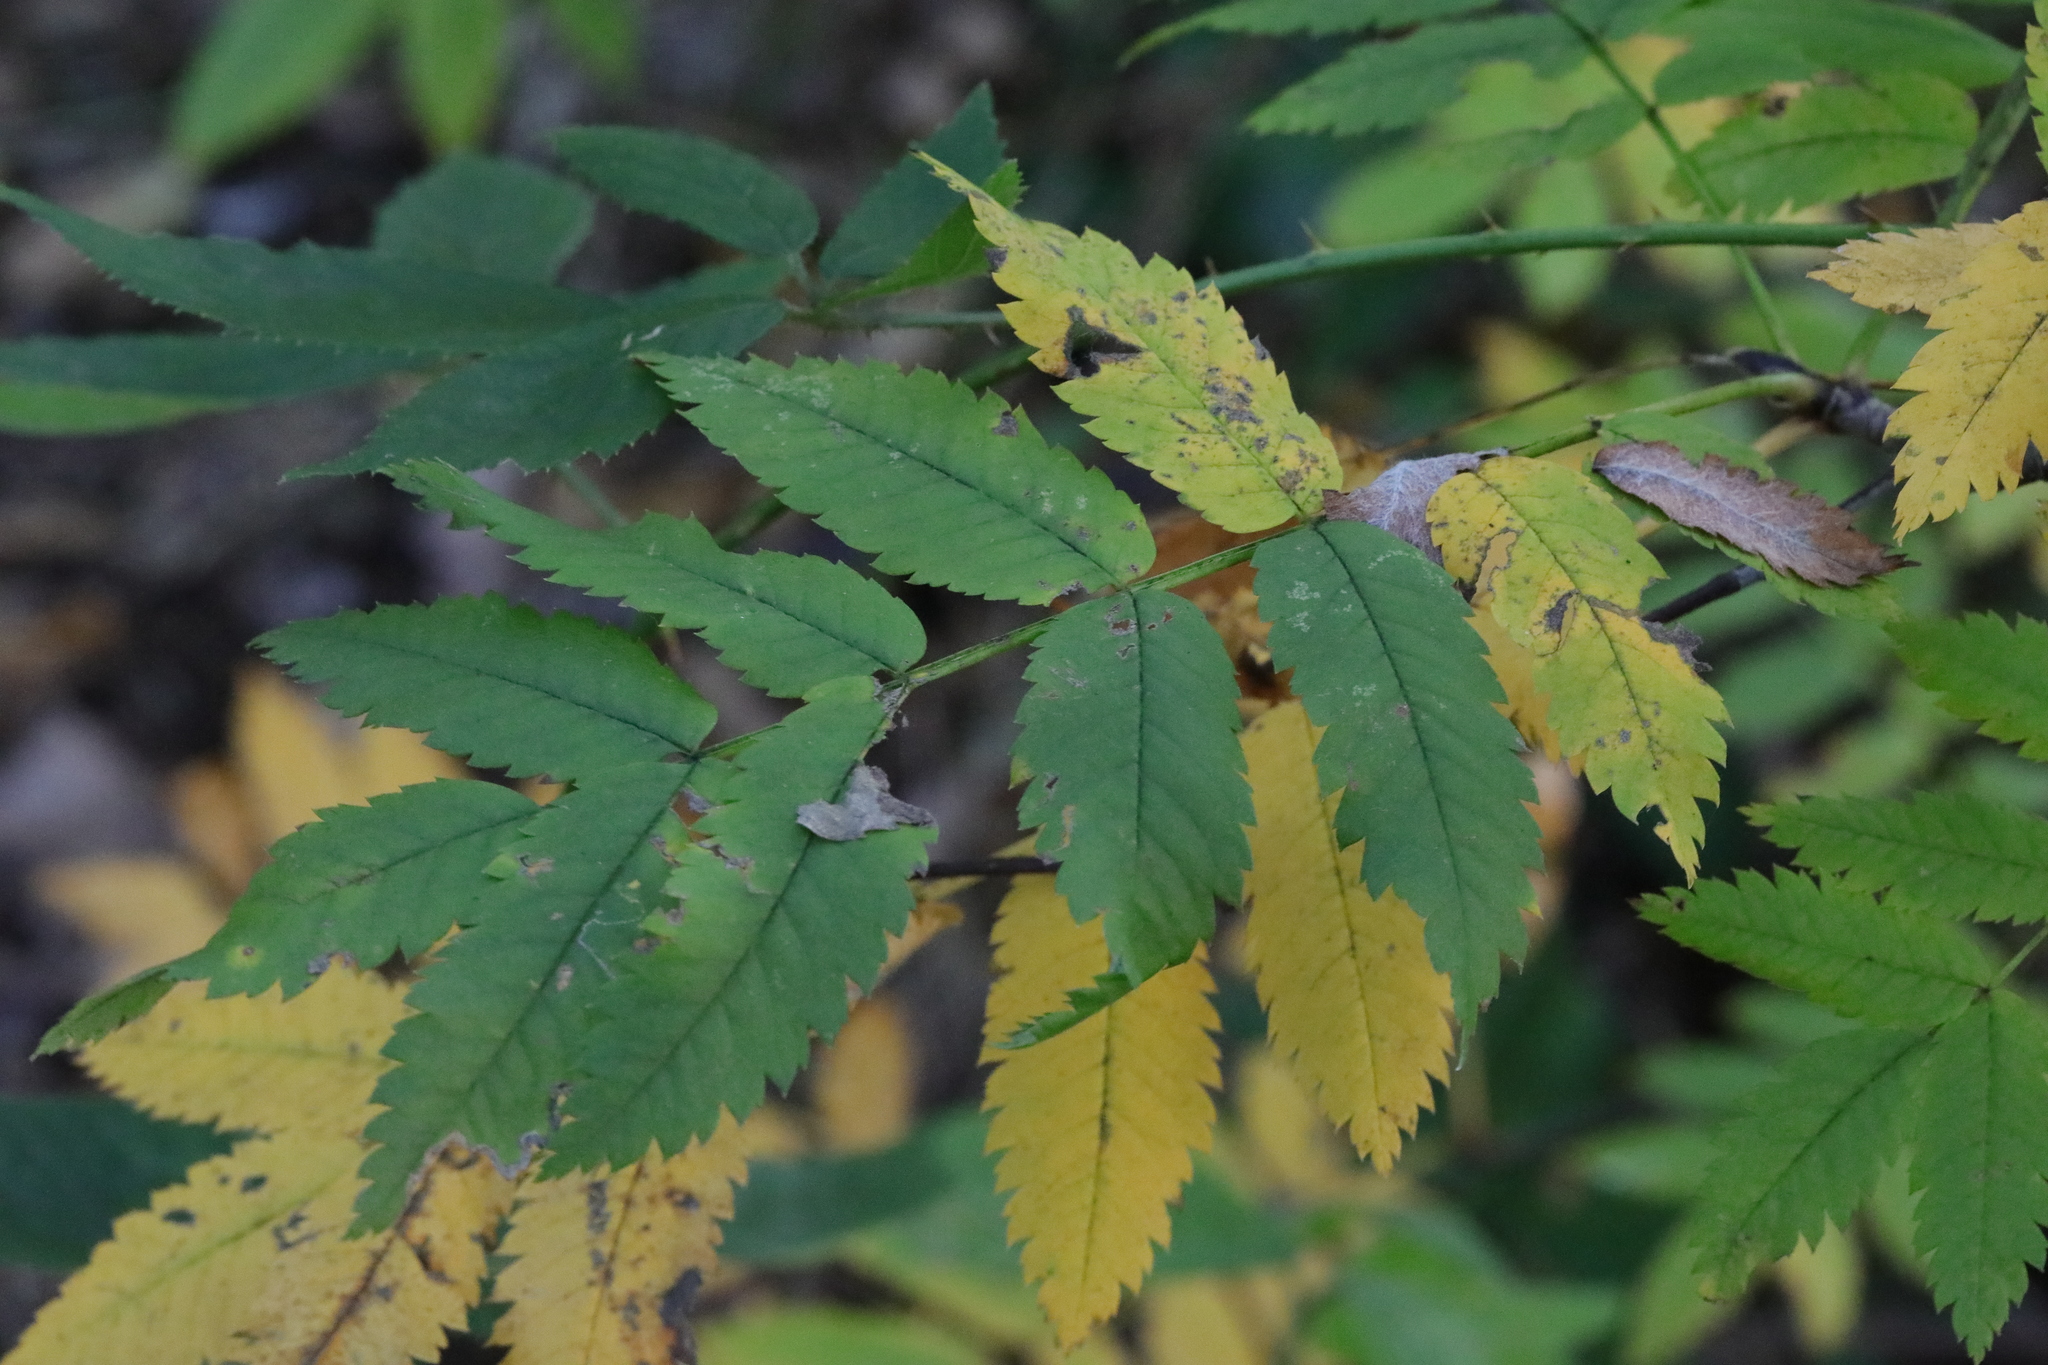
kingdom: Plantae
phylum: Tracheophyta
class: Magnoliopsida
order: Rosales
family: Rosaceae
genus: Sorbus
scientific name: Sorbus aucuparia
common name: Rowan
